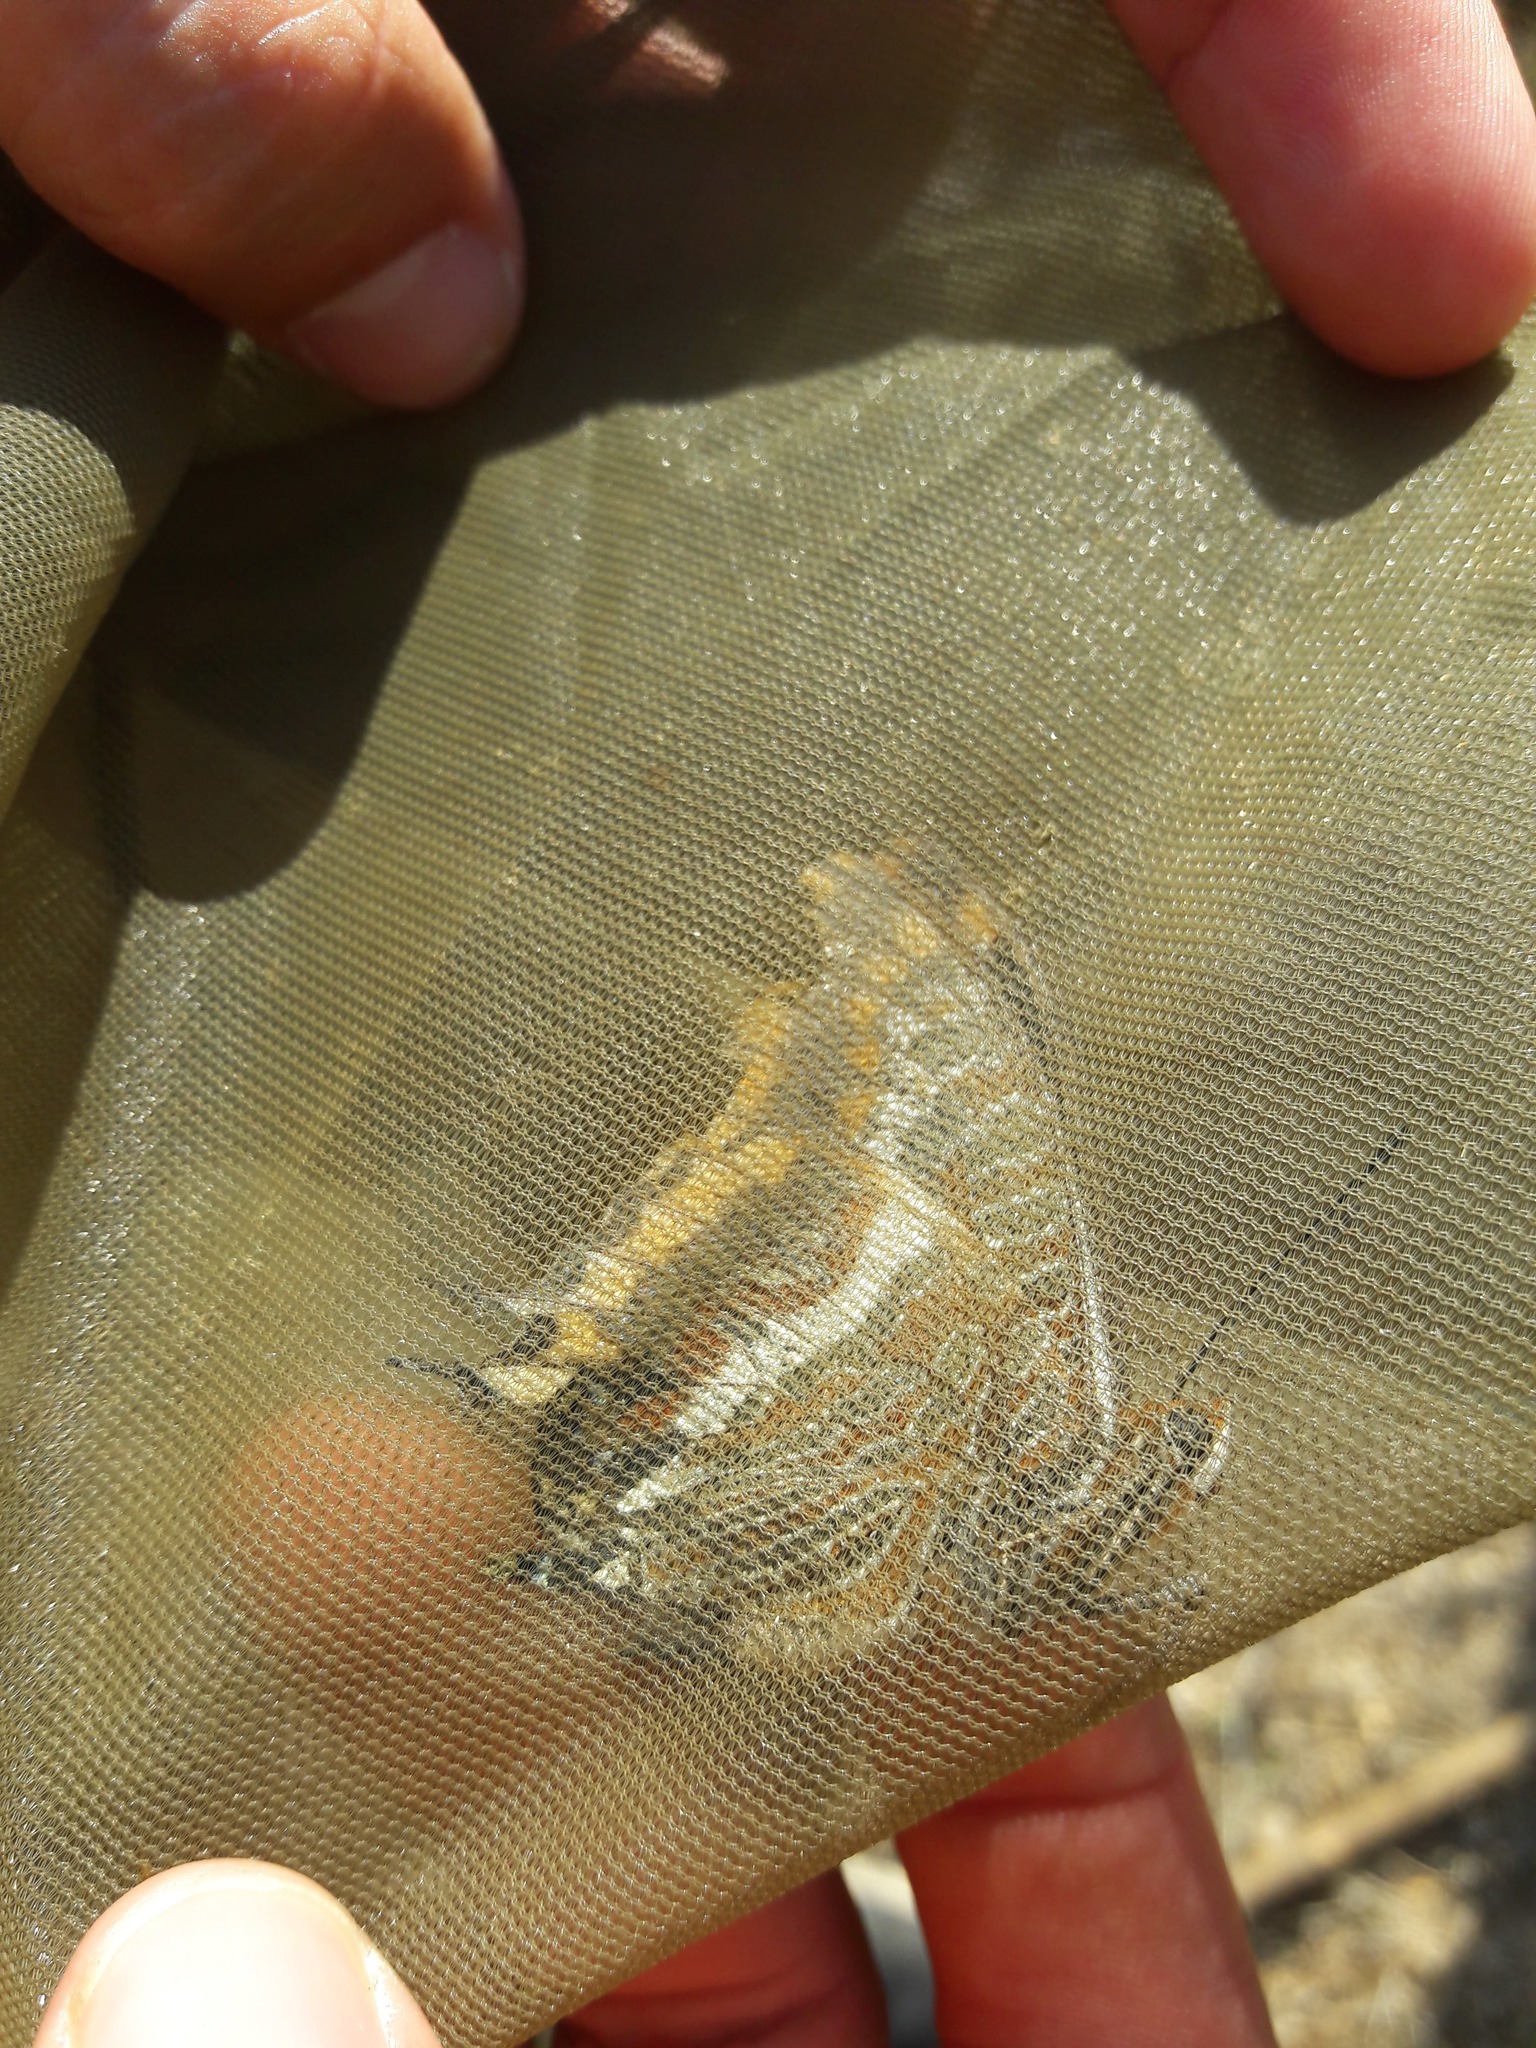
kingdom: Animalia
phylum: Arthropoda
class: Insecta
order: Lepidoptera
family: Nymphalidae
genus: Charaxes
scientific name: Charaxes jasius
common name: Two tailed pasha
